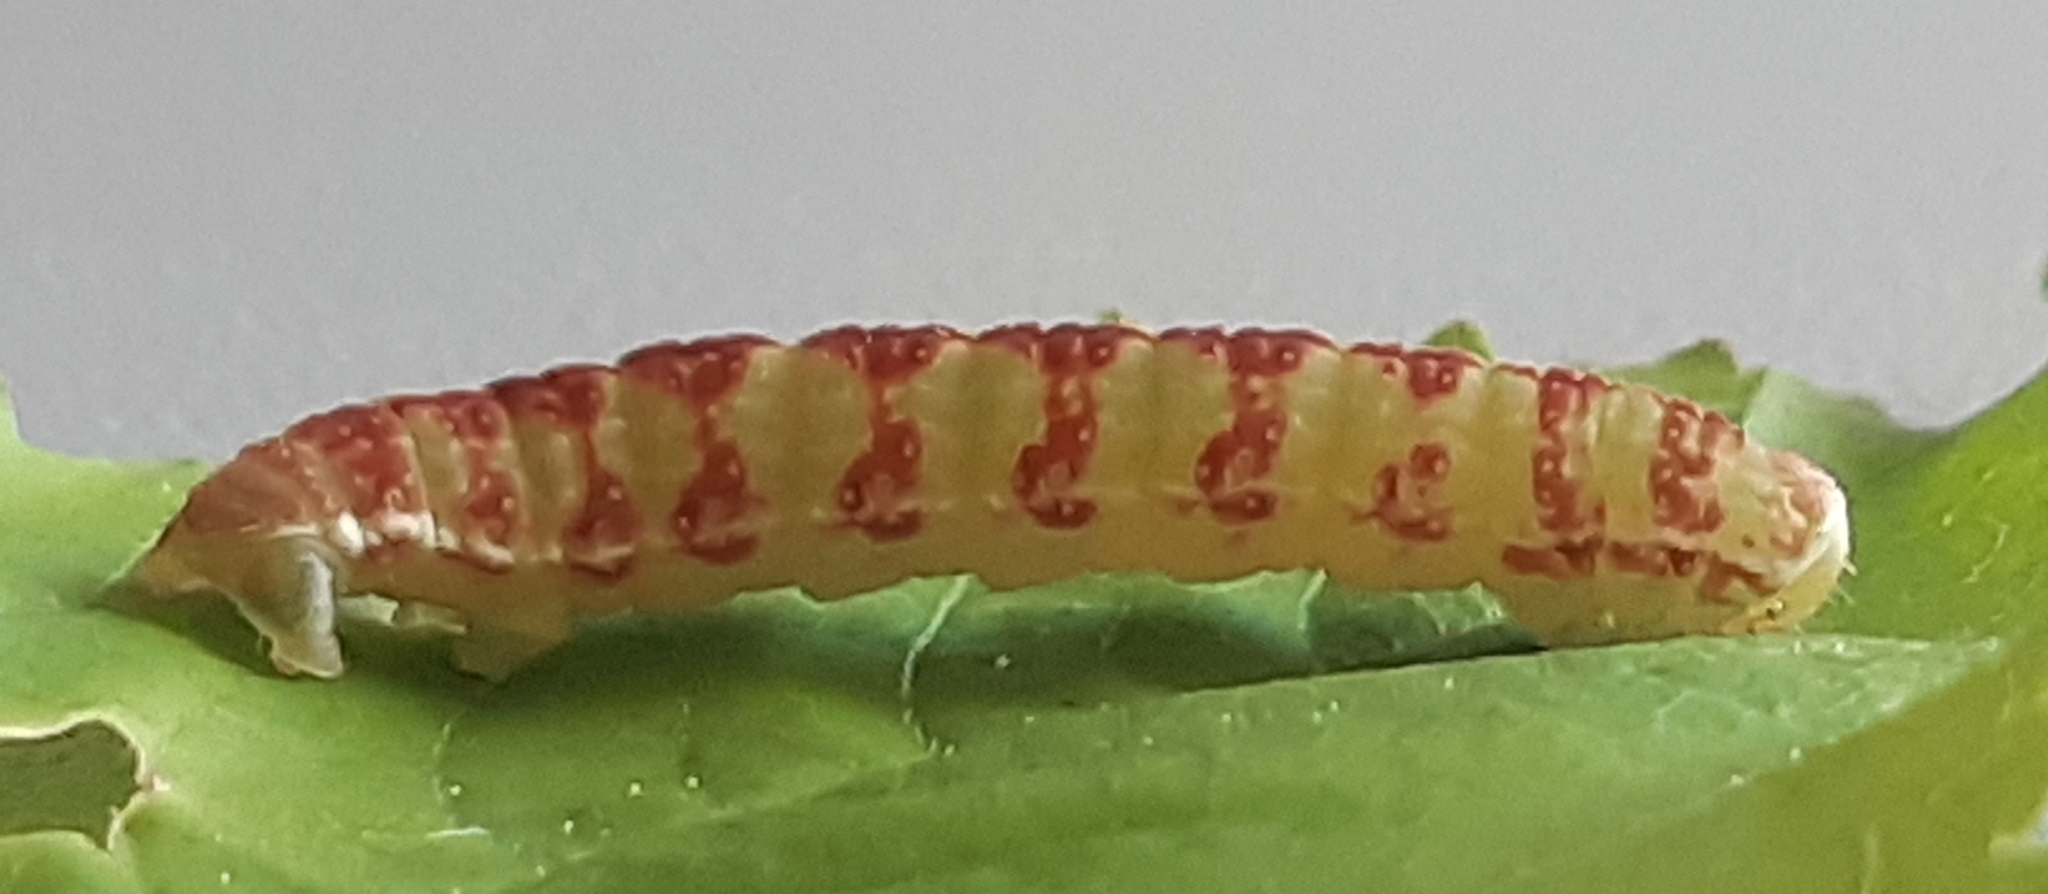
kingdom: Animalia
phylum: Arthropoda
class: Insecta
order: Lepidoptera
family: Geometridae
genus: Epirrita
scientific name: Epirrita dilutata
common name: November moth
